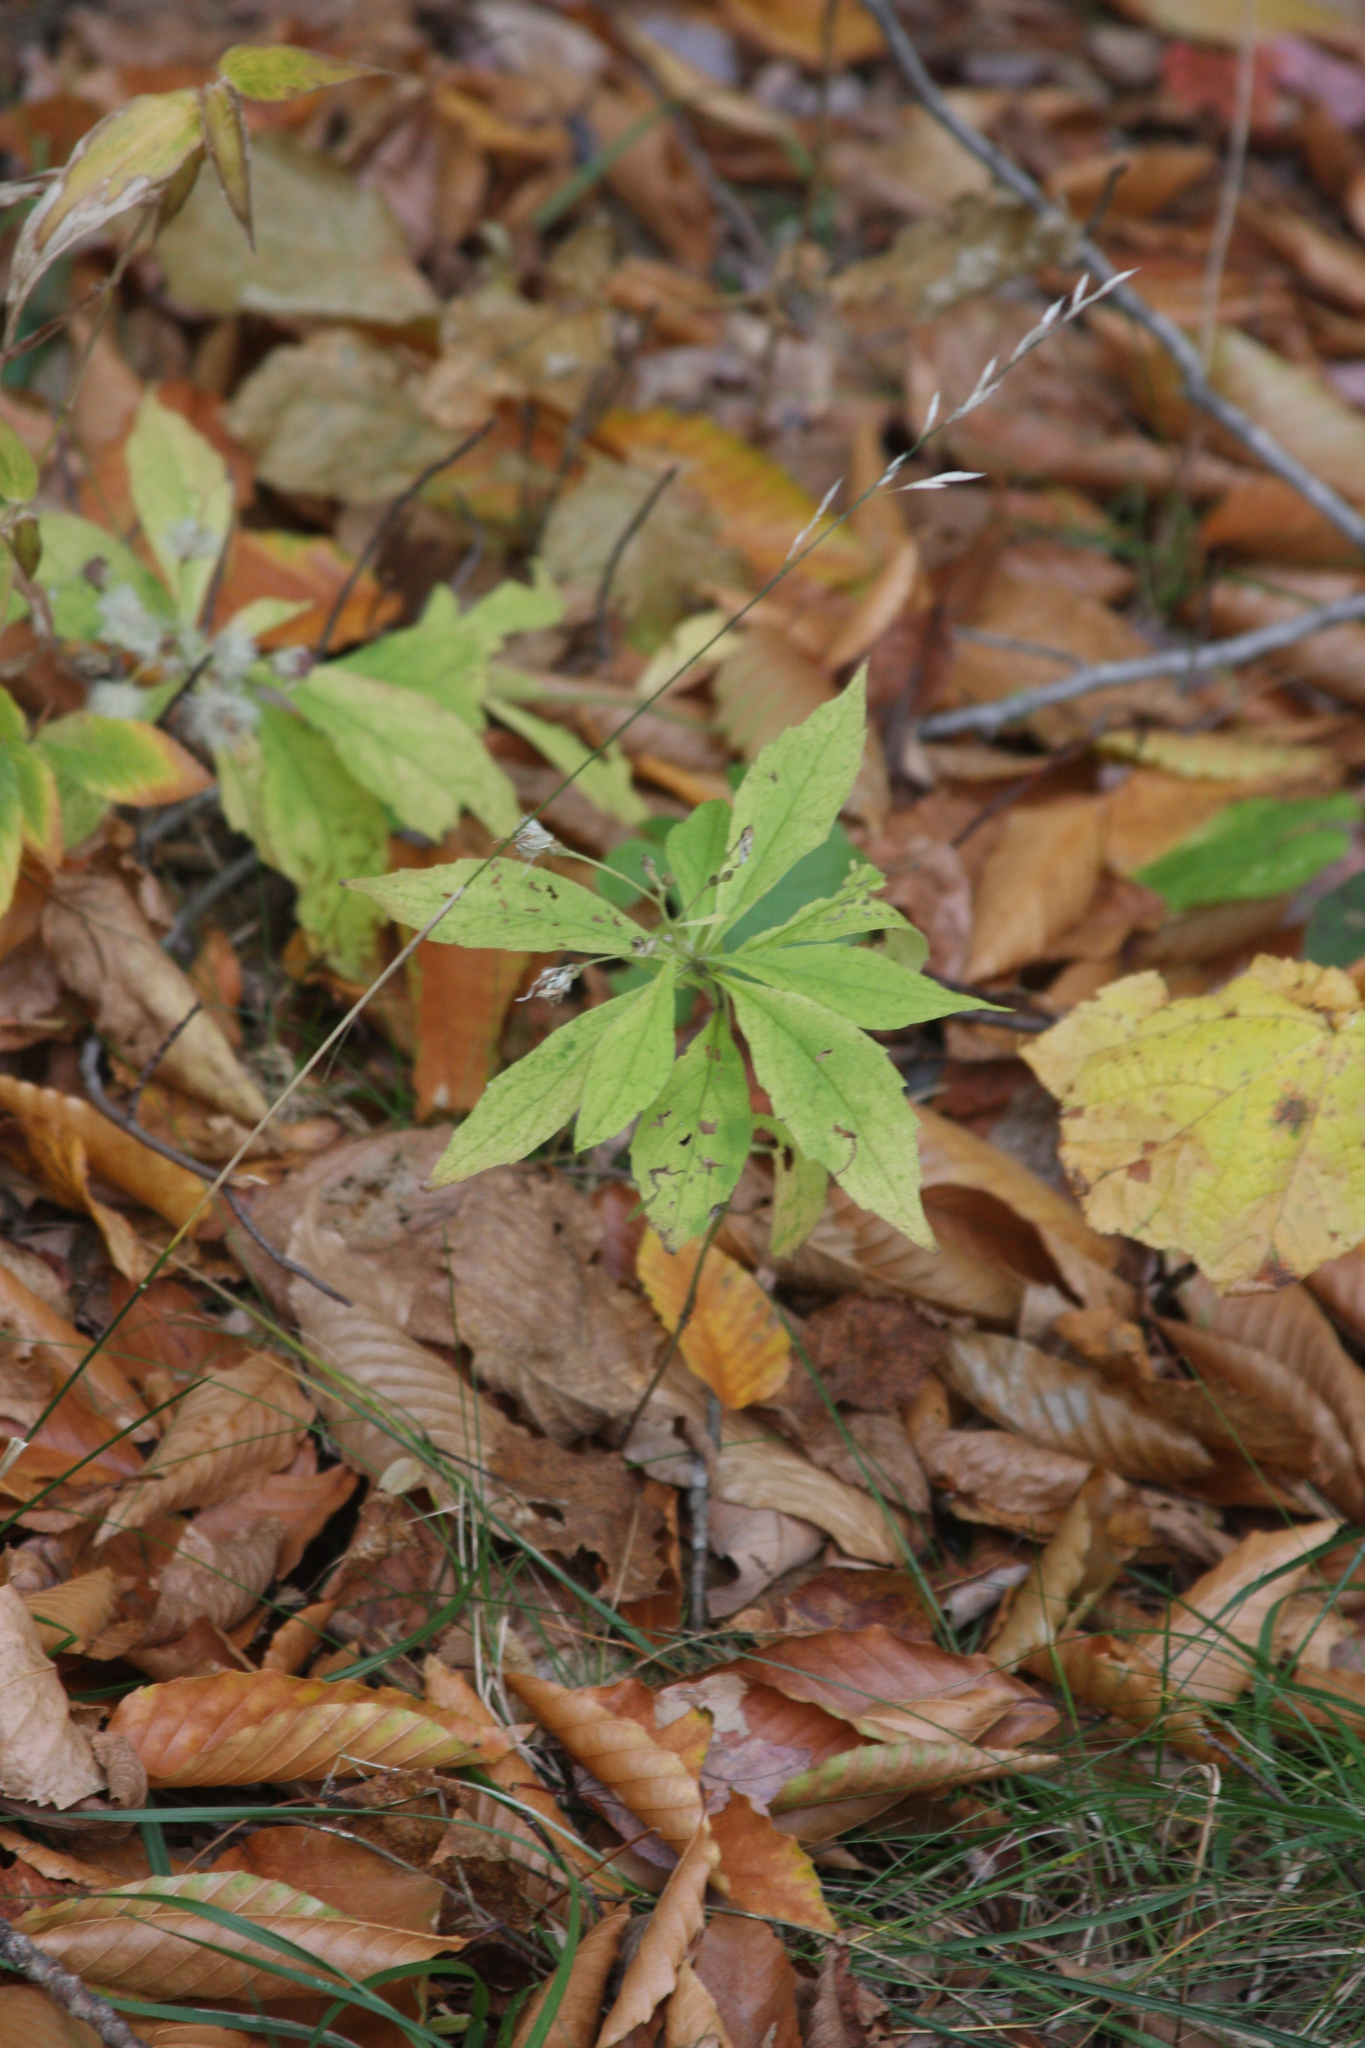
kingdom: Plantae
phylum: Tracheophyta
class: Magnoliopsida
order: Asterales
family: Asteraceae
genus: Oclemena
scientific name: Oclemena acuminata
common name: Mountain aster
